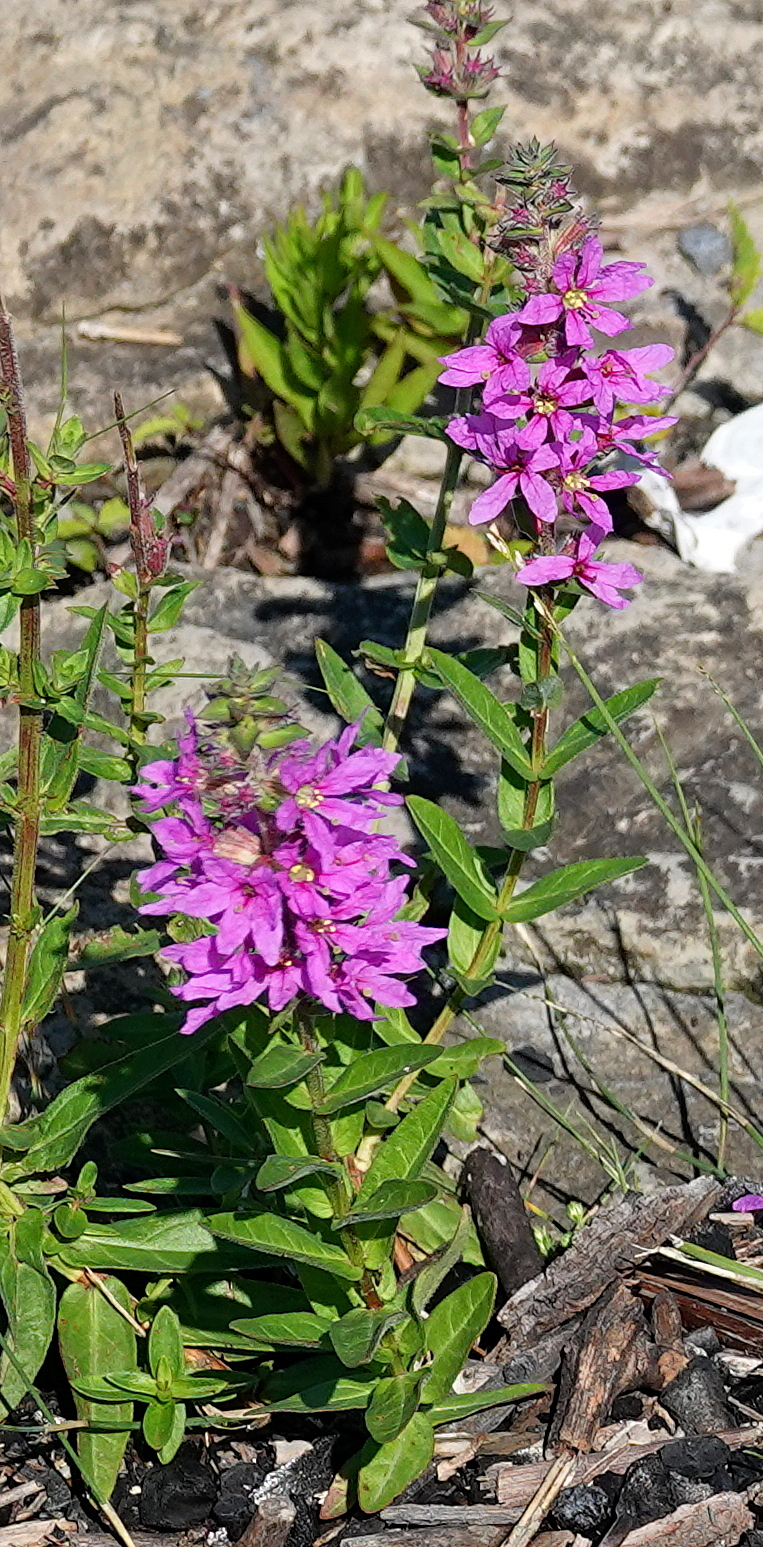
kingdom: Plantae
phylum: Tracheophyta
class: Magnoliopsida
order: Myrtales
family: Lythraceae
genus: Lythrum
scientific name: Lythrum salicaria
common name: Purple loosestrife
